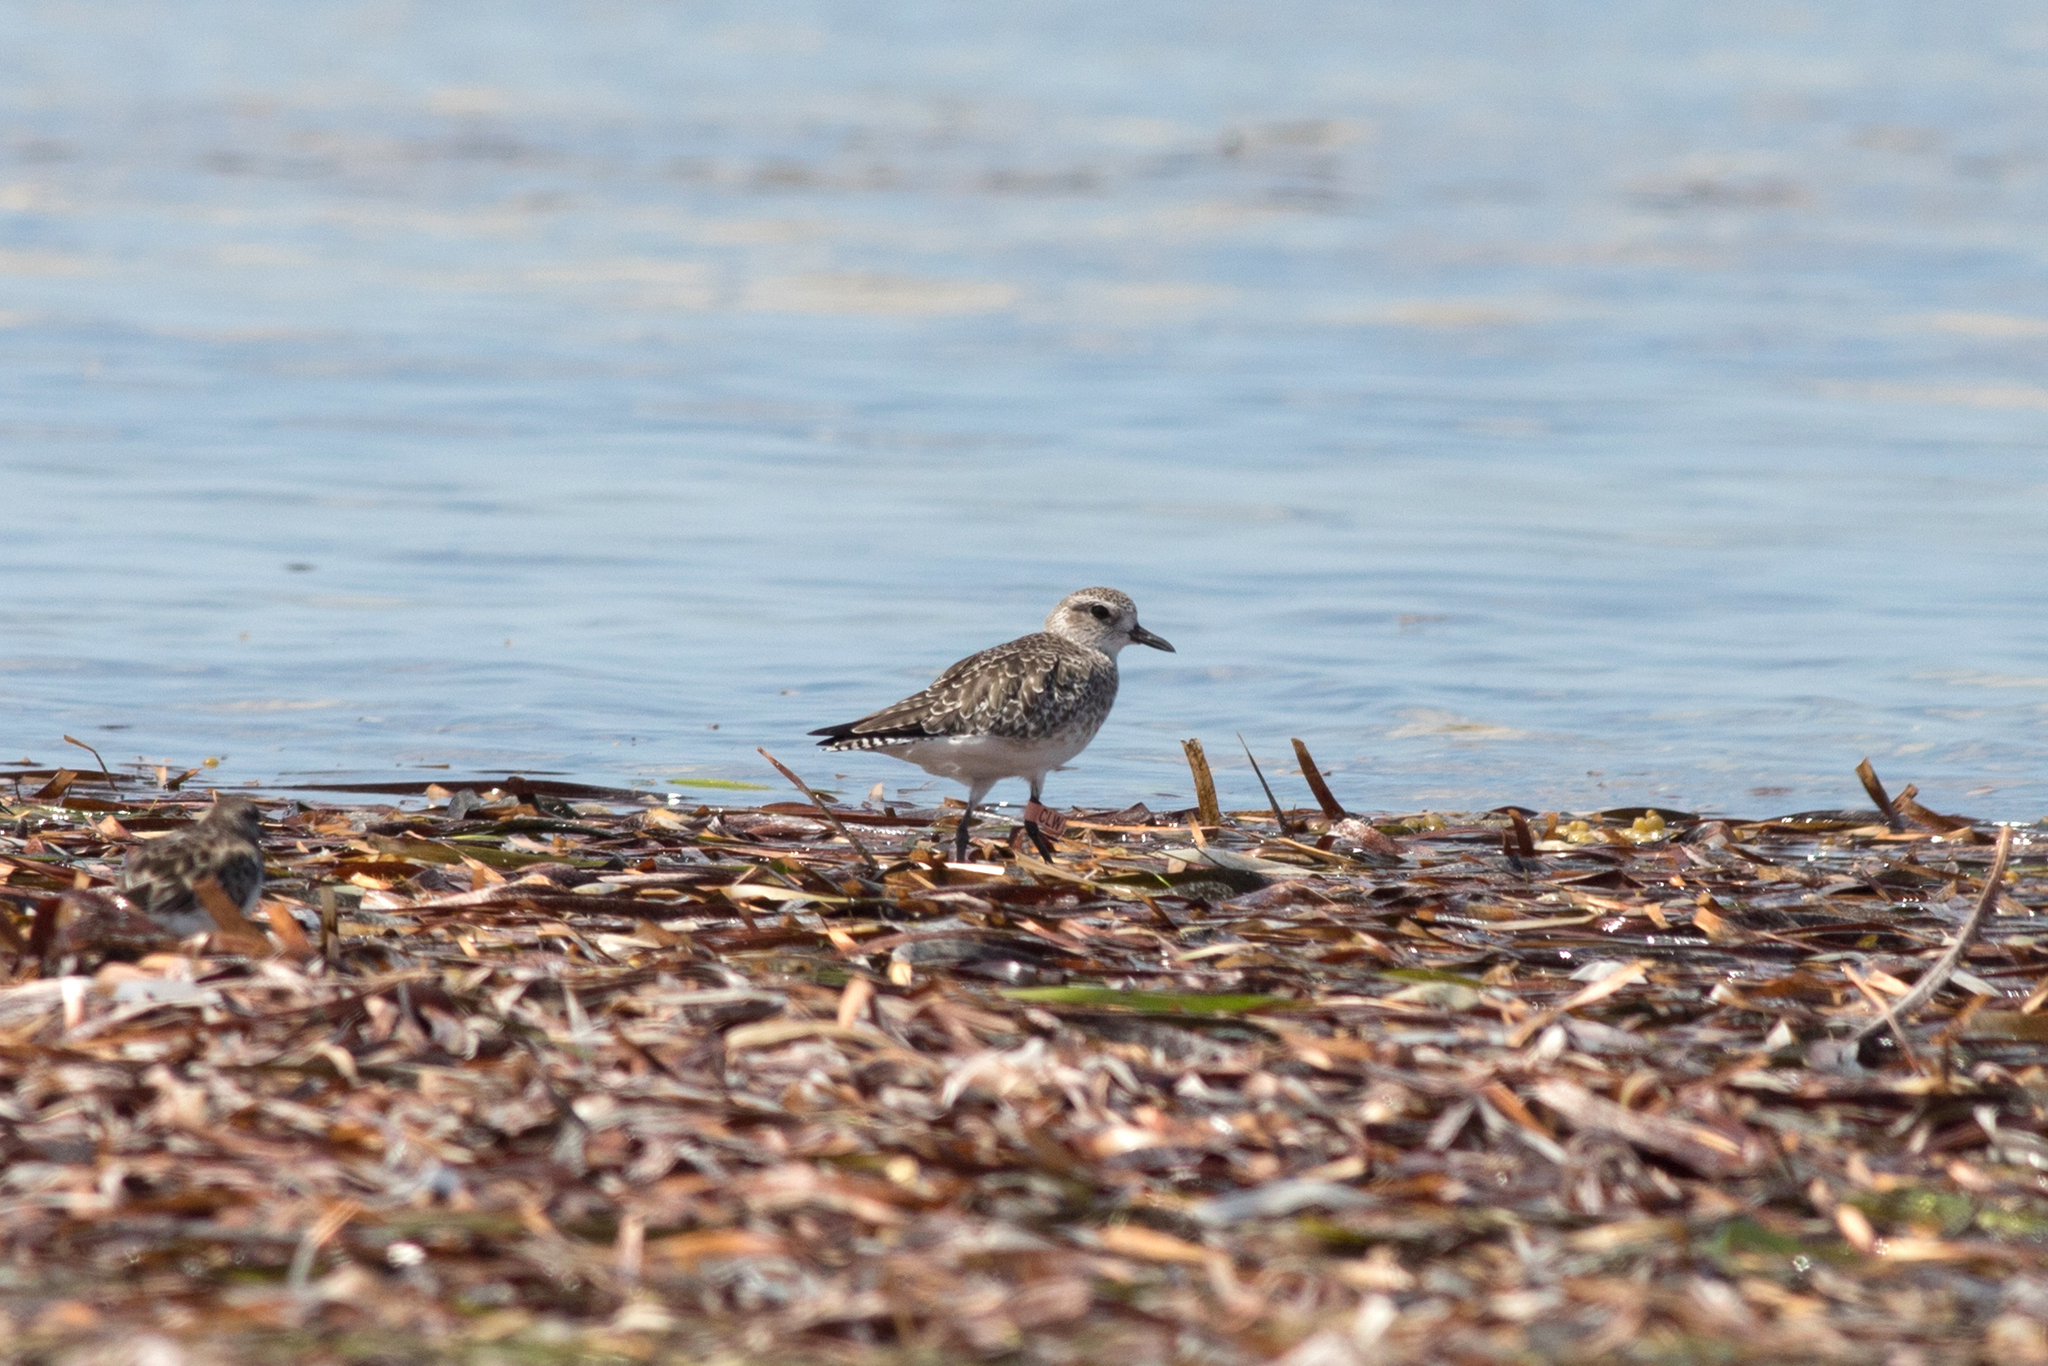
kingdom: Animalia
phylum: Chordata
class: Aves
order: Charadriiformes
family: Charadriidae
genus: Pluvialis
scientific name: Pluvialis squatarola
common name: Grey plover
